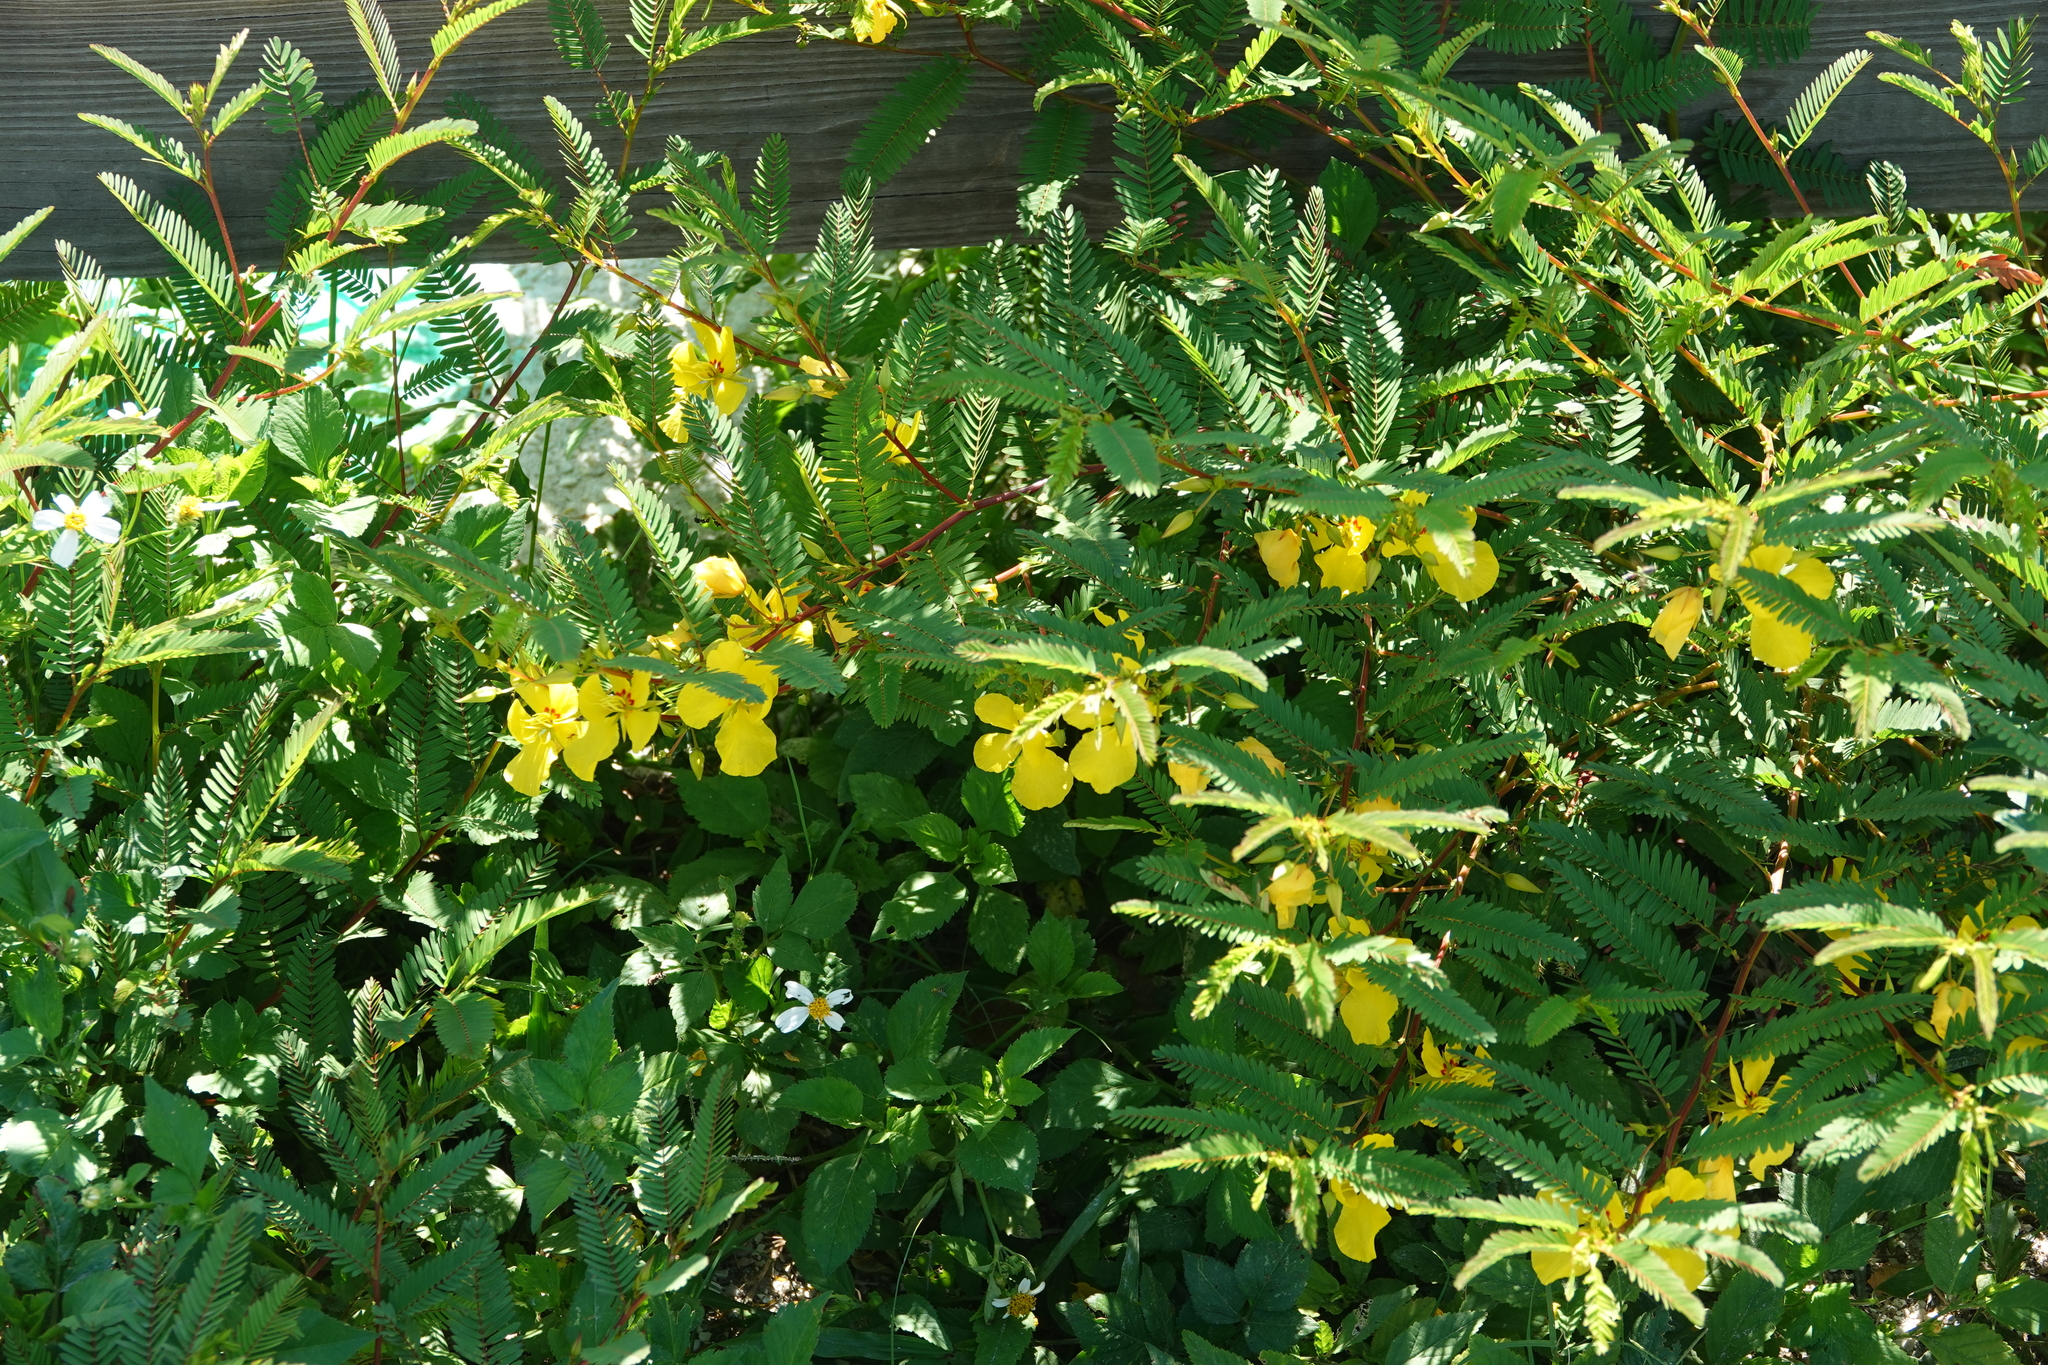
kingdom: Plantae
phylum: Tracheophyta
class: Magnoliopsida
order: Fabales
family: Fabaceae
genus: Chamaecrista
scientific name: Chamaecrista fasciculata
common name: Golden cassia
